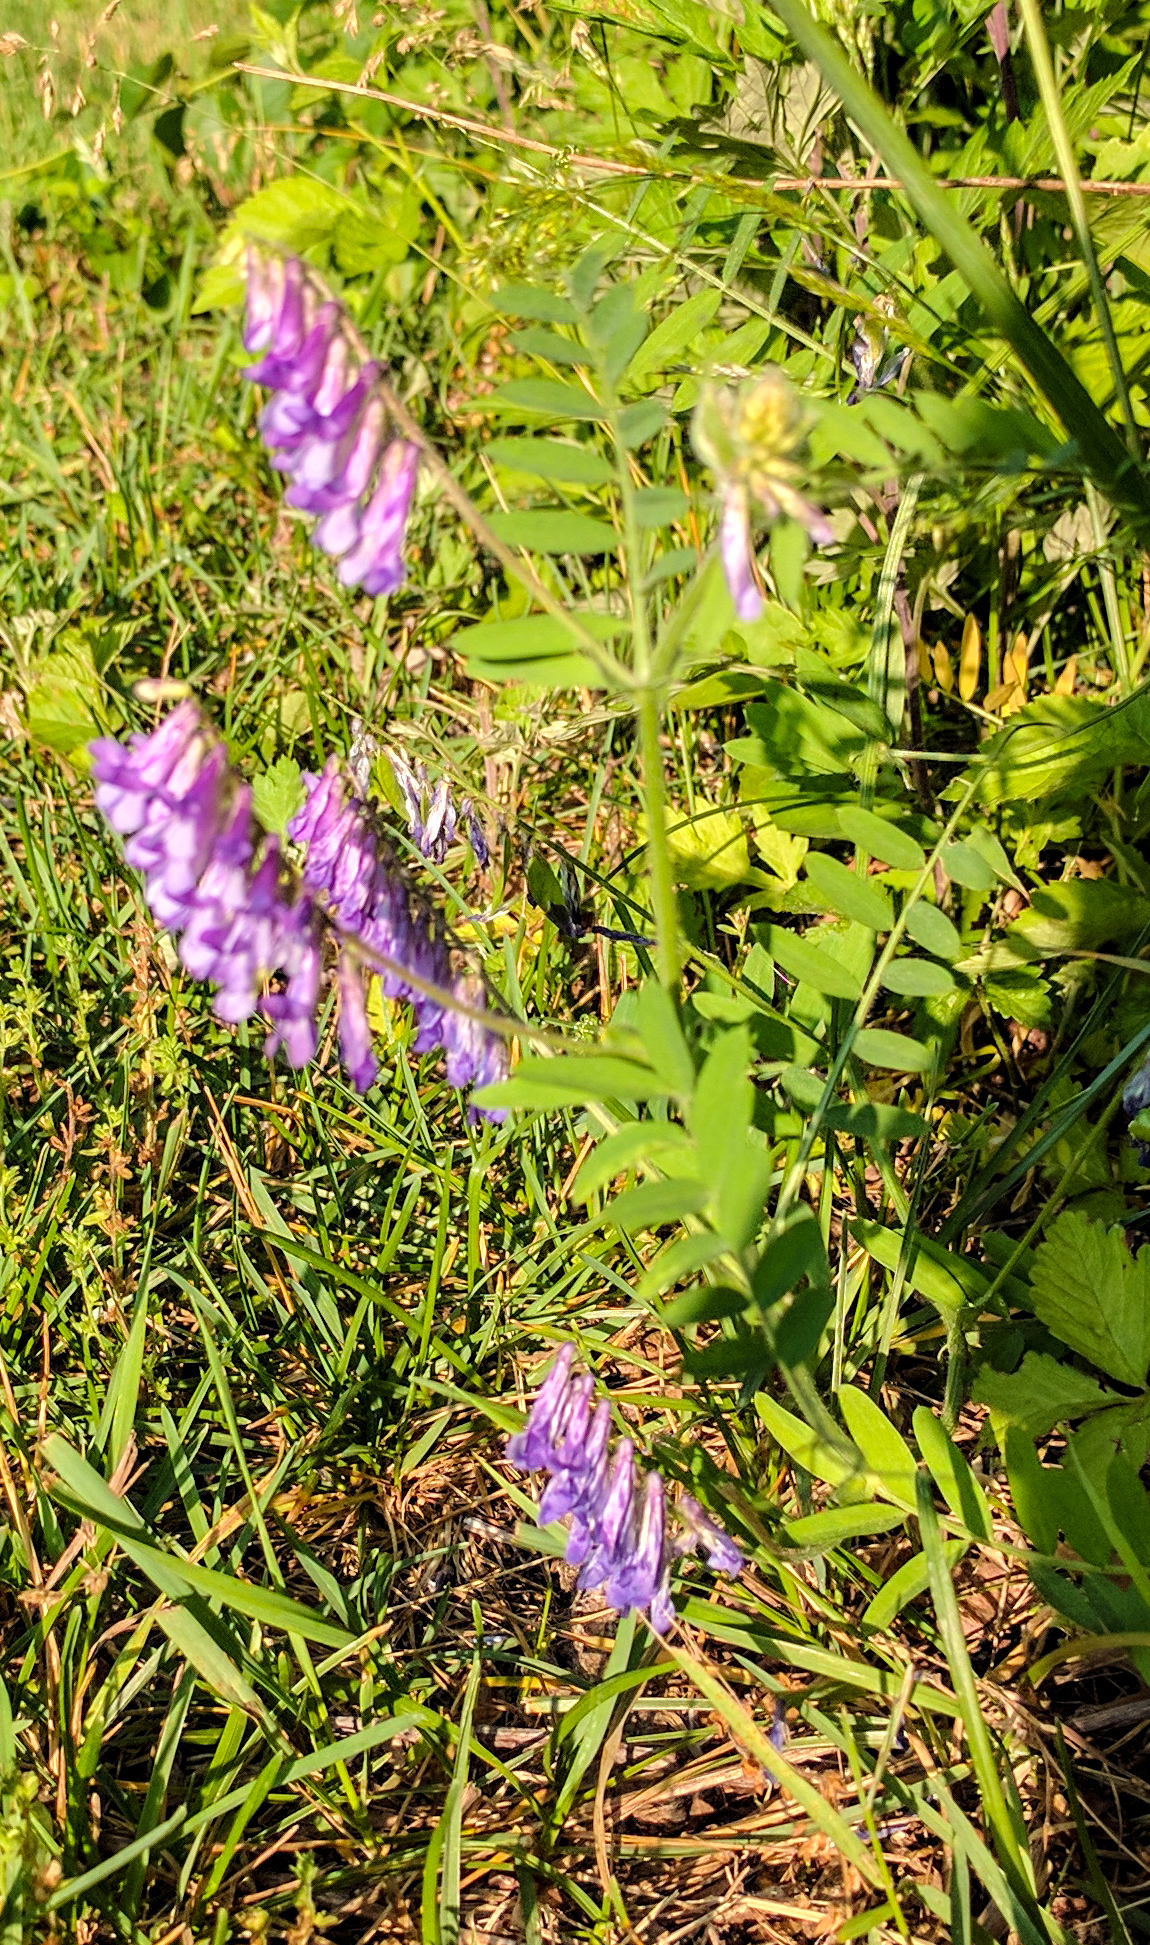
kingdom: Plantae
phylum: Tracheophyta
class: Magnoliopsida
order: Fabales
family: Fabaceae
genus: Vicia
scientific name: Vicia villosa
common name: Fodder vetch
